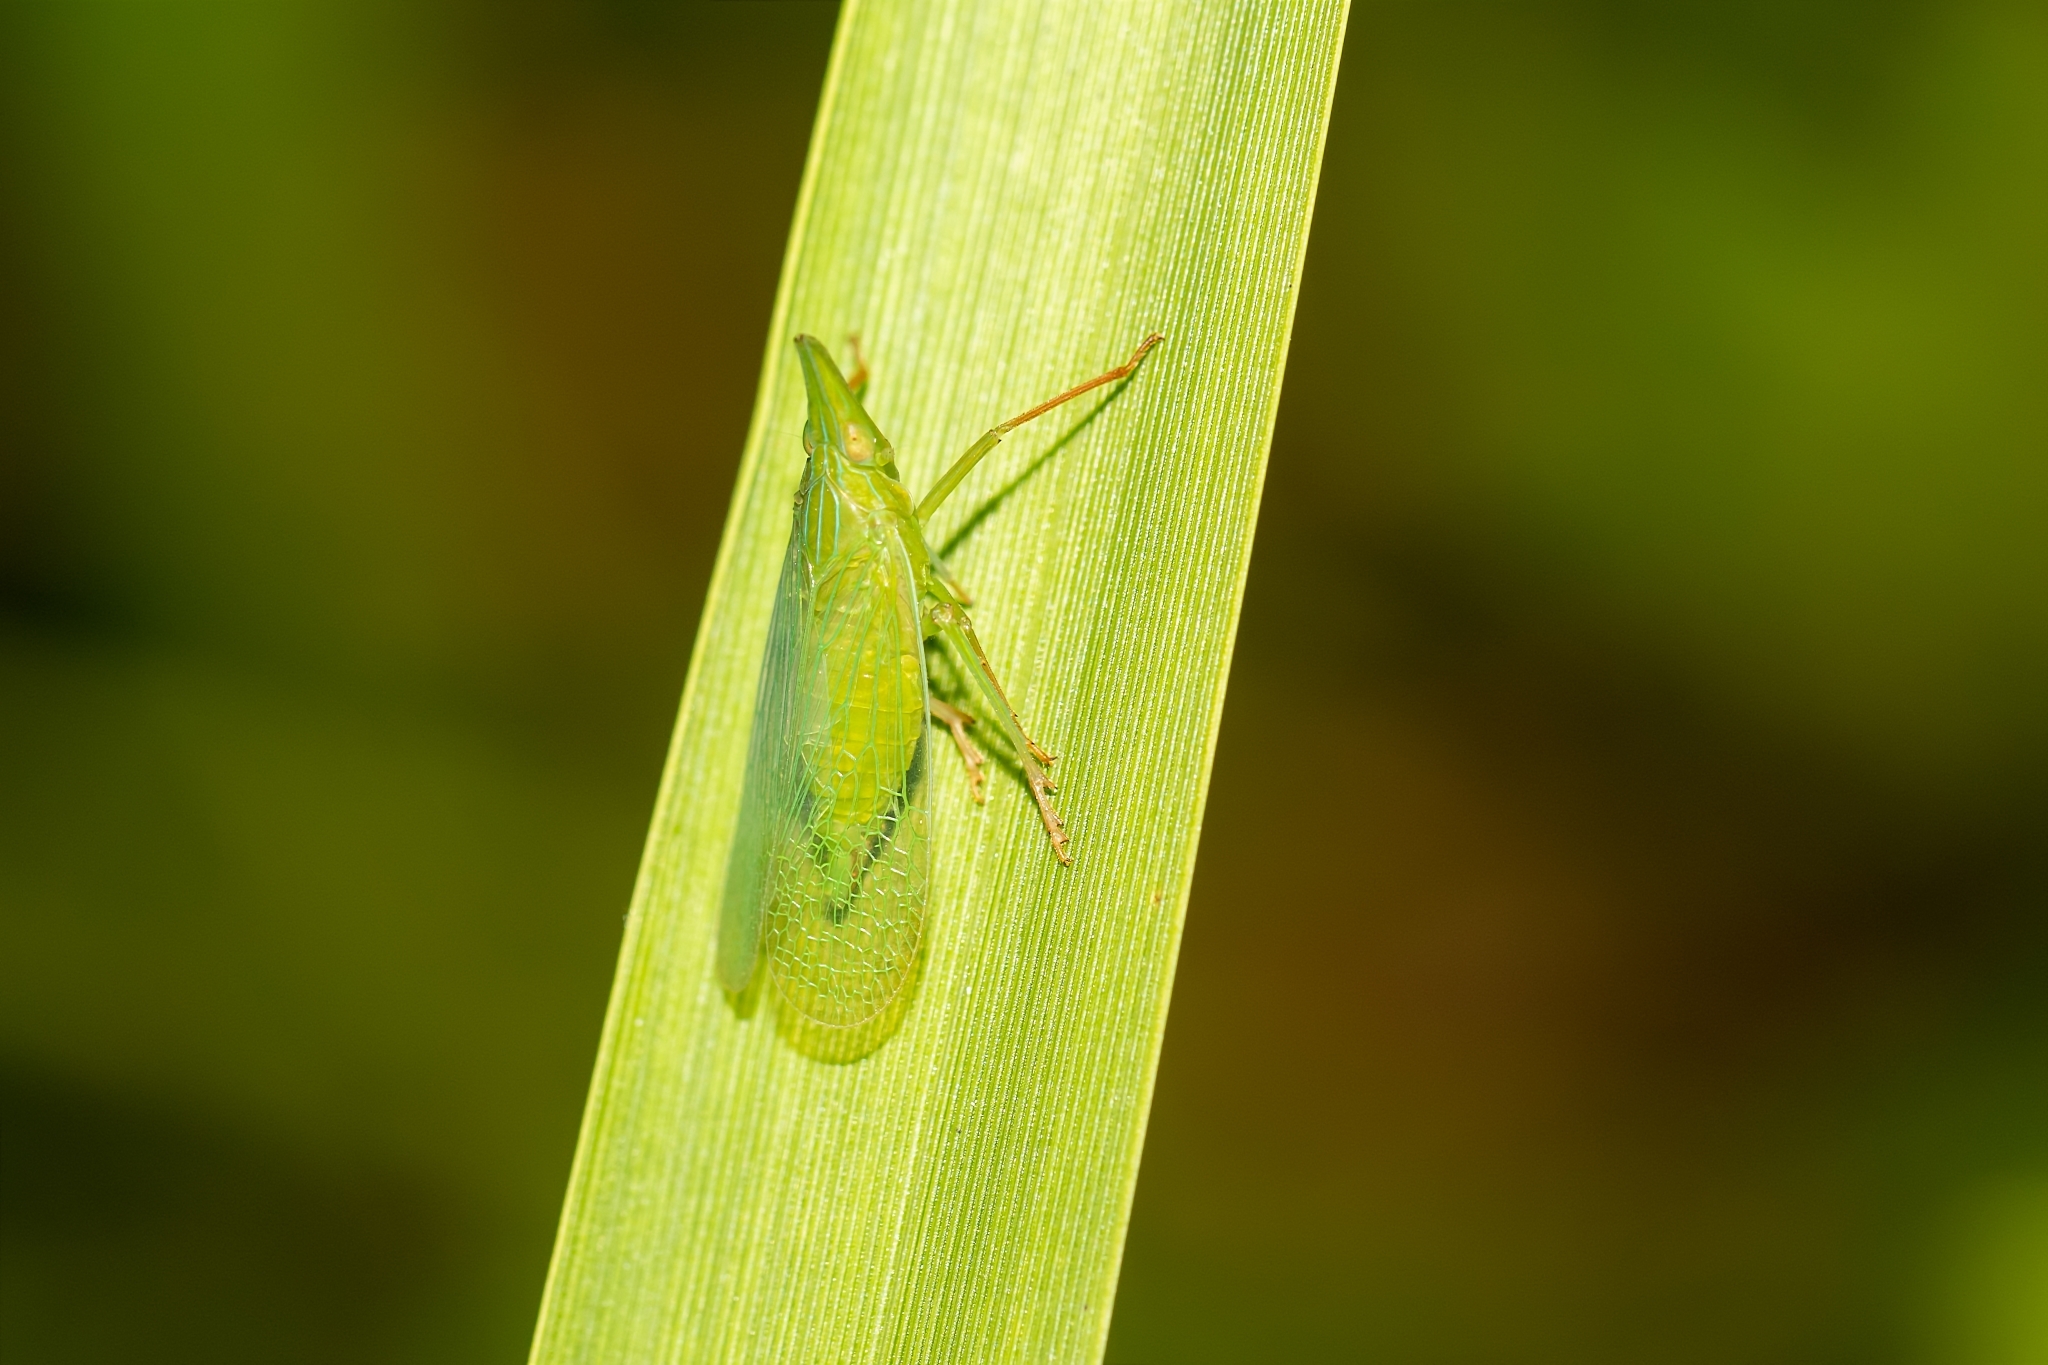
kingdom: Animalia
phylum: Arthropoda
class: Insecta
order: Hemiptera
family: Dictyopharidae
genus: Rhynchomitra
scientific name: Rhynchomitra microrhina
